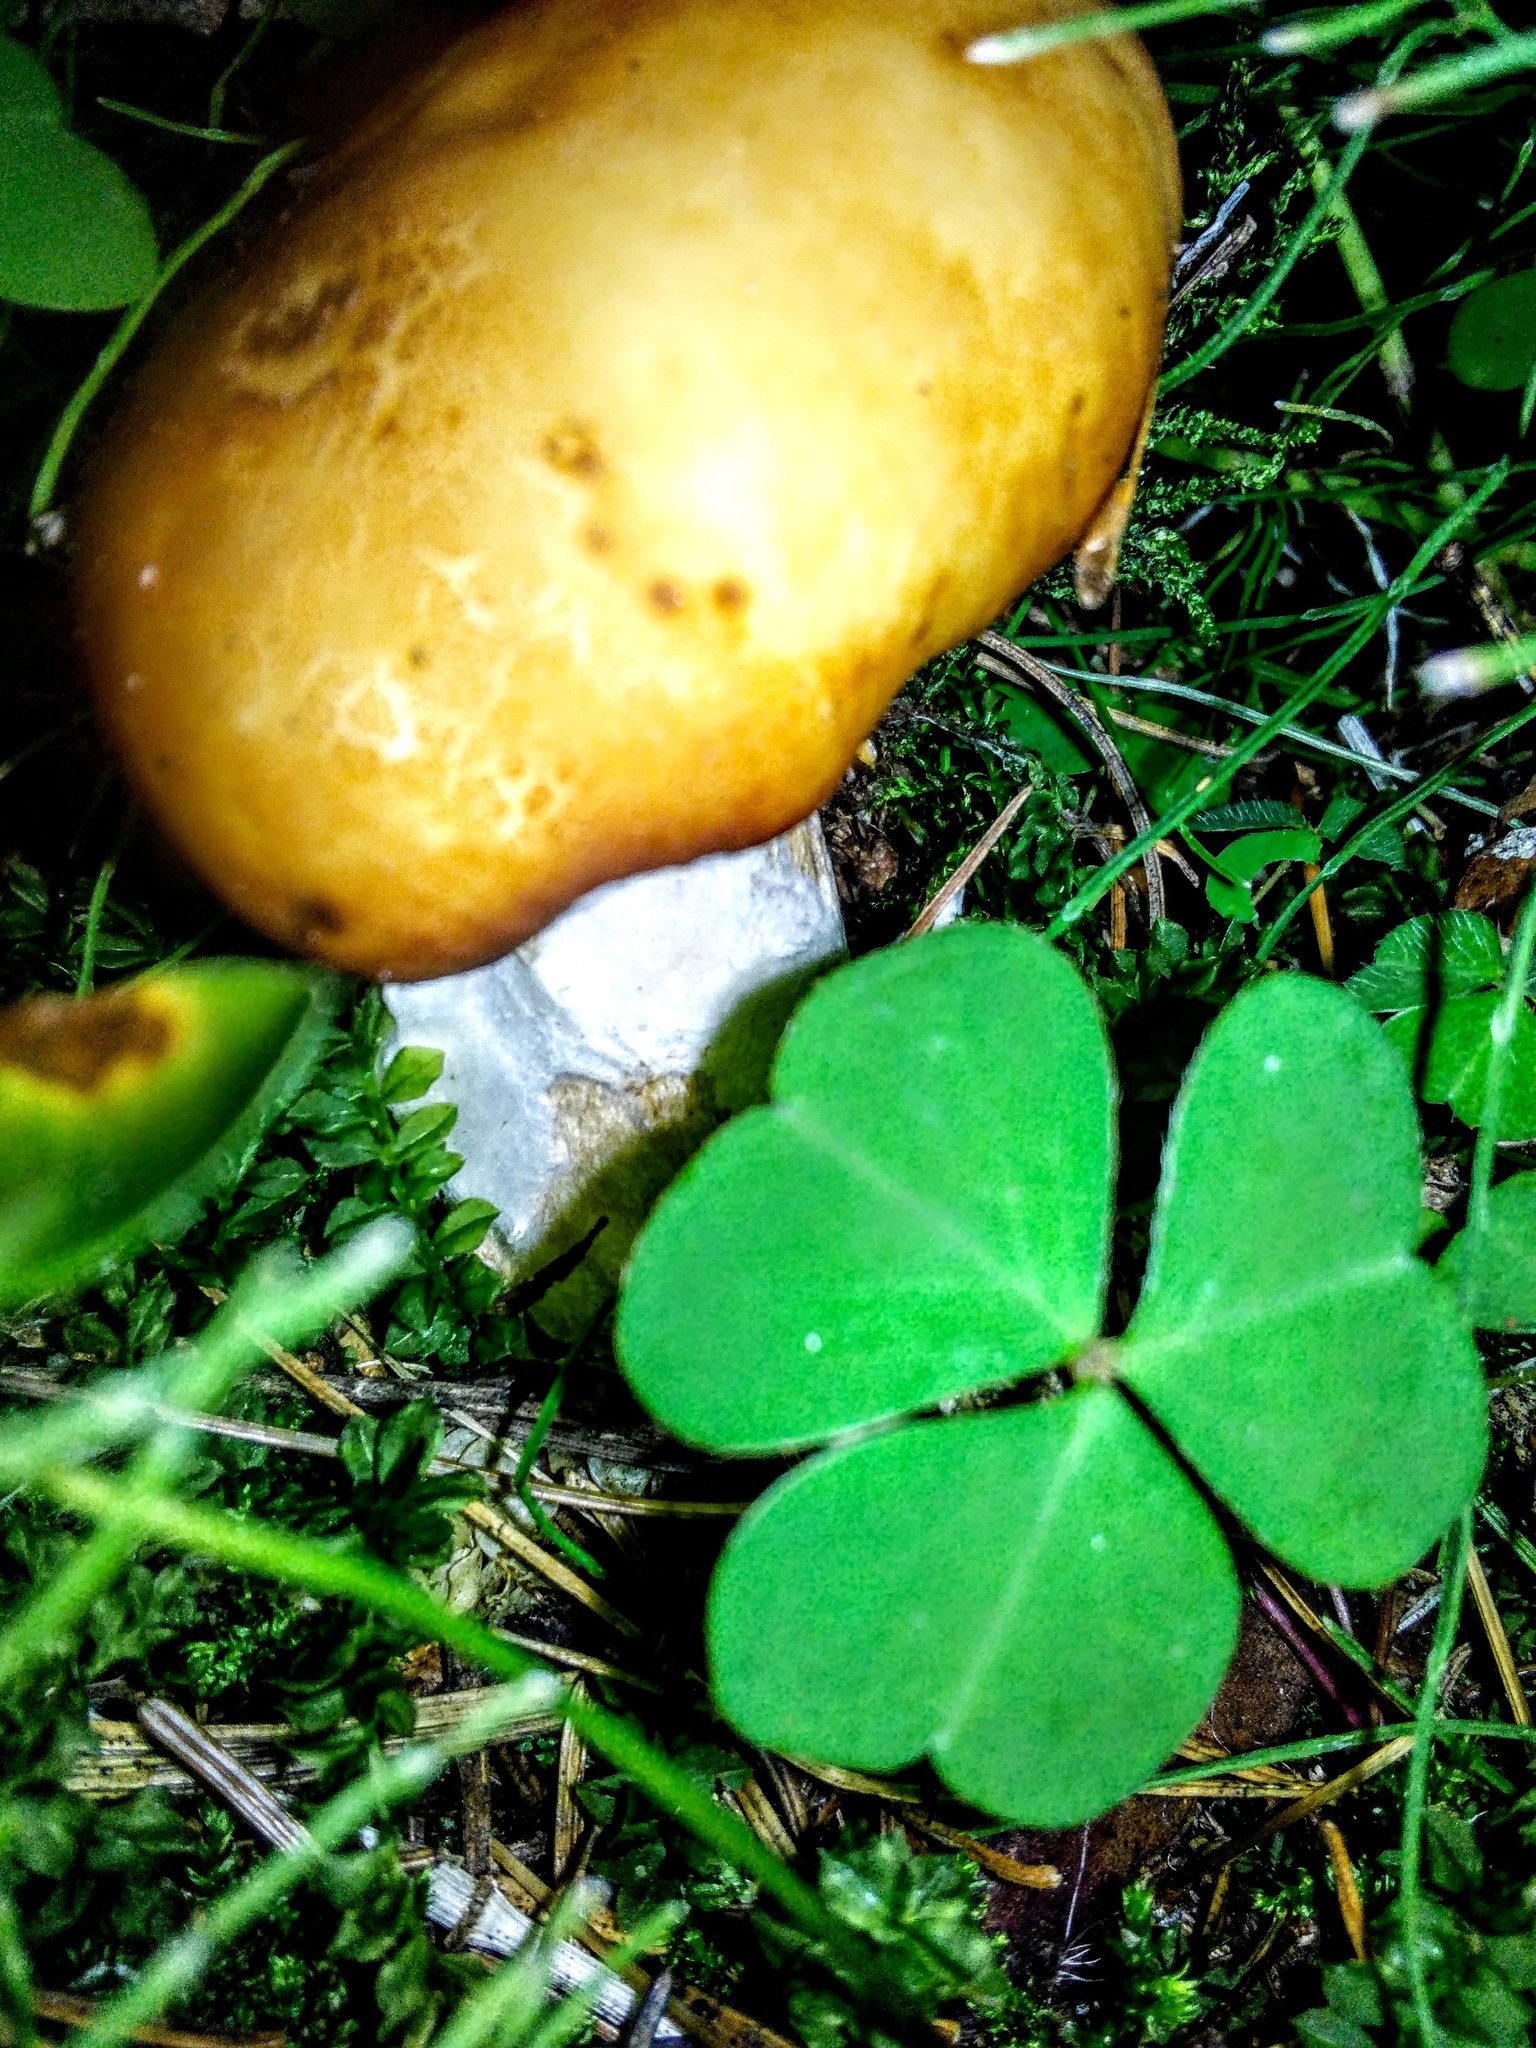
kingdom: Fungi
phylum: Basidiomycota
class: Agaricomycetes
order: Russulales
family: Russulaceae
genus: Russula
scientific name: Russula foetens
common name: Foetid russula
